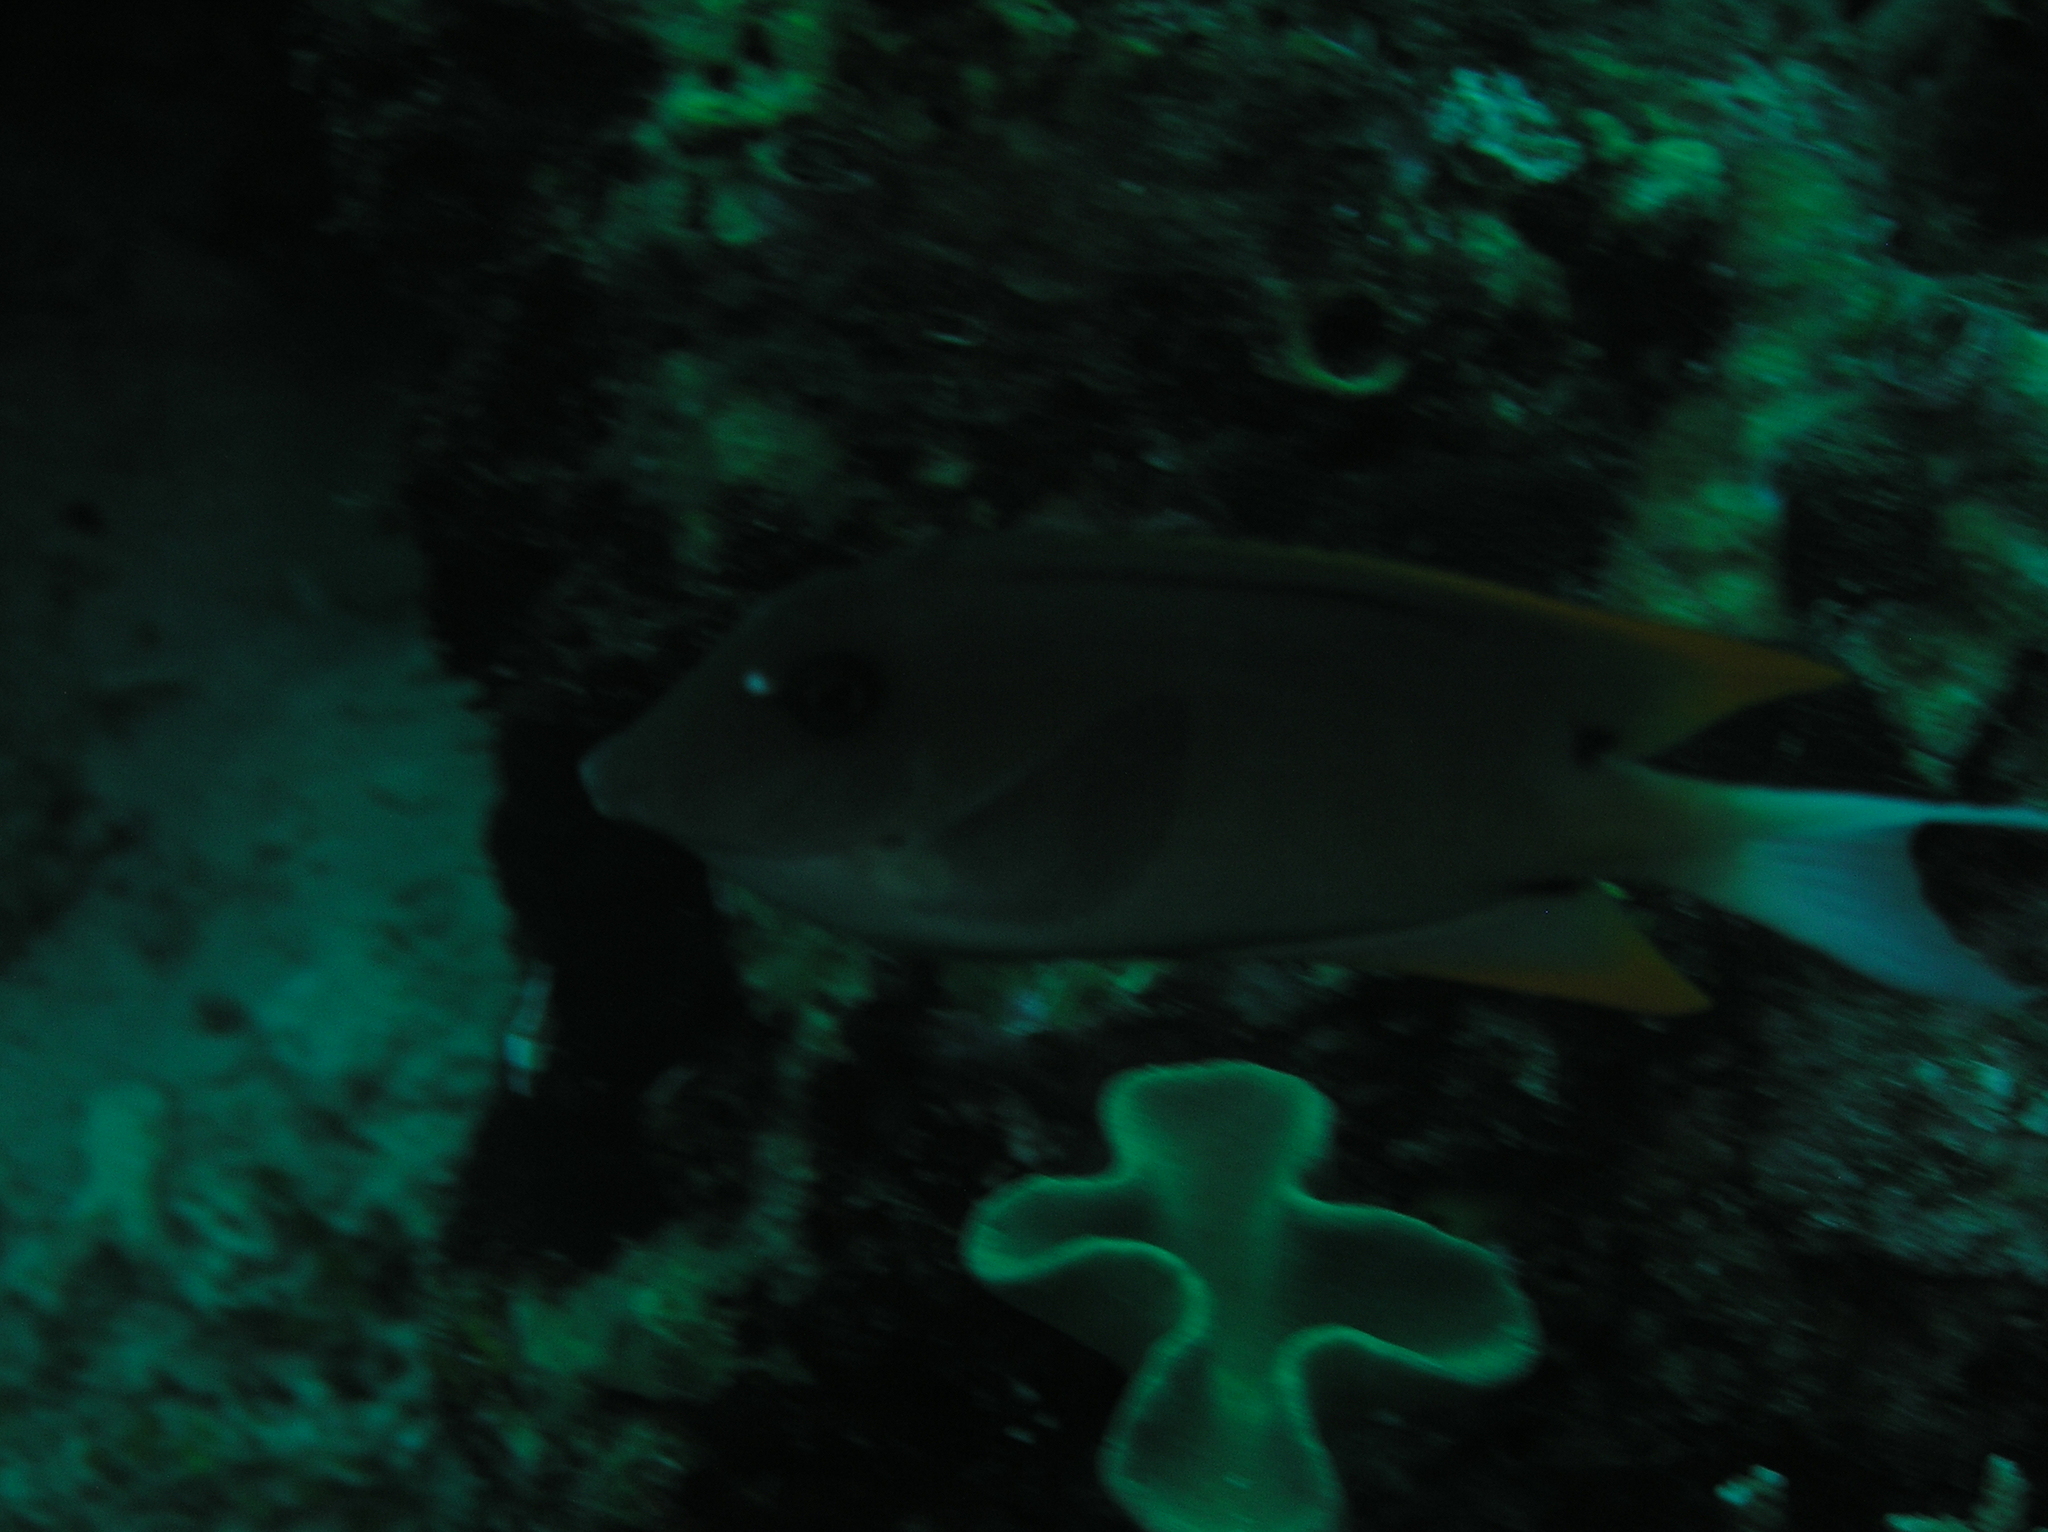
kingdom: Animalia
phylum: Chordata
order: Perciformes
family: Acanthuridae
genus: Ctenochaetus
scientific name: Ctenochaetus tominiensis
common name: Orange-tipped bristletooth
